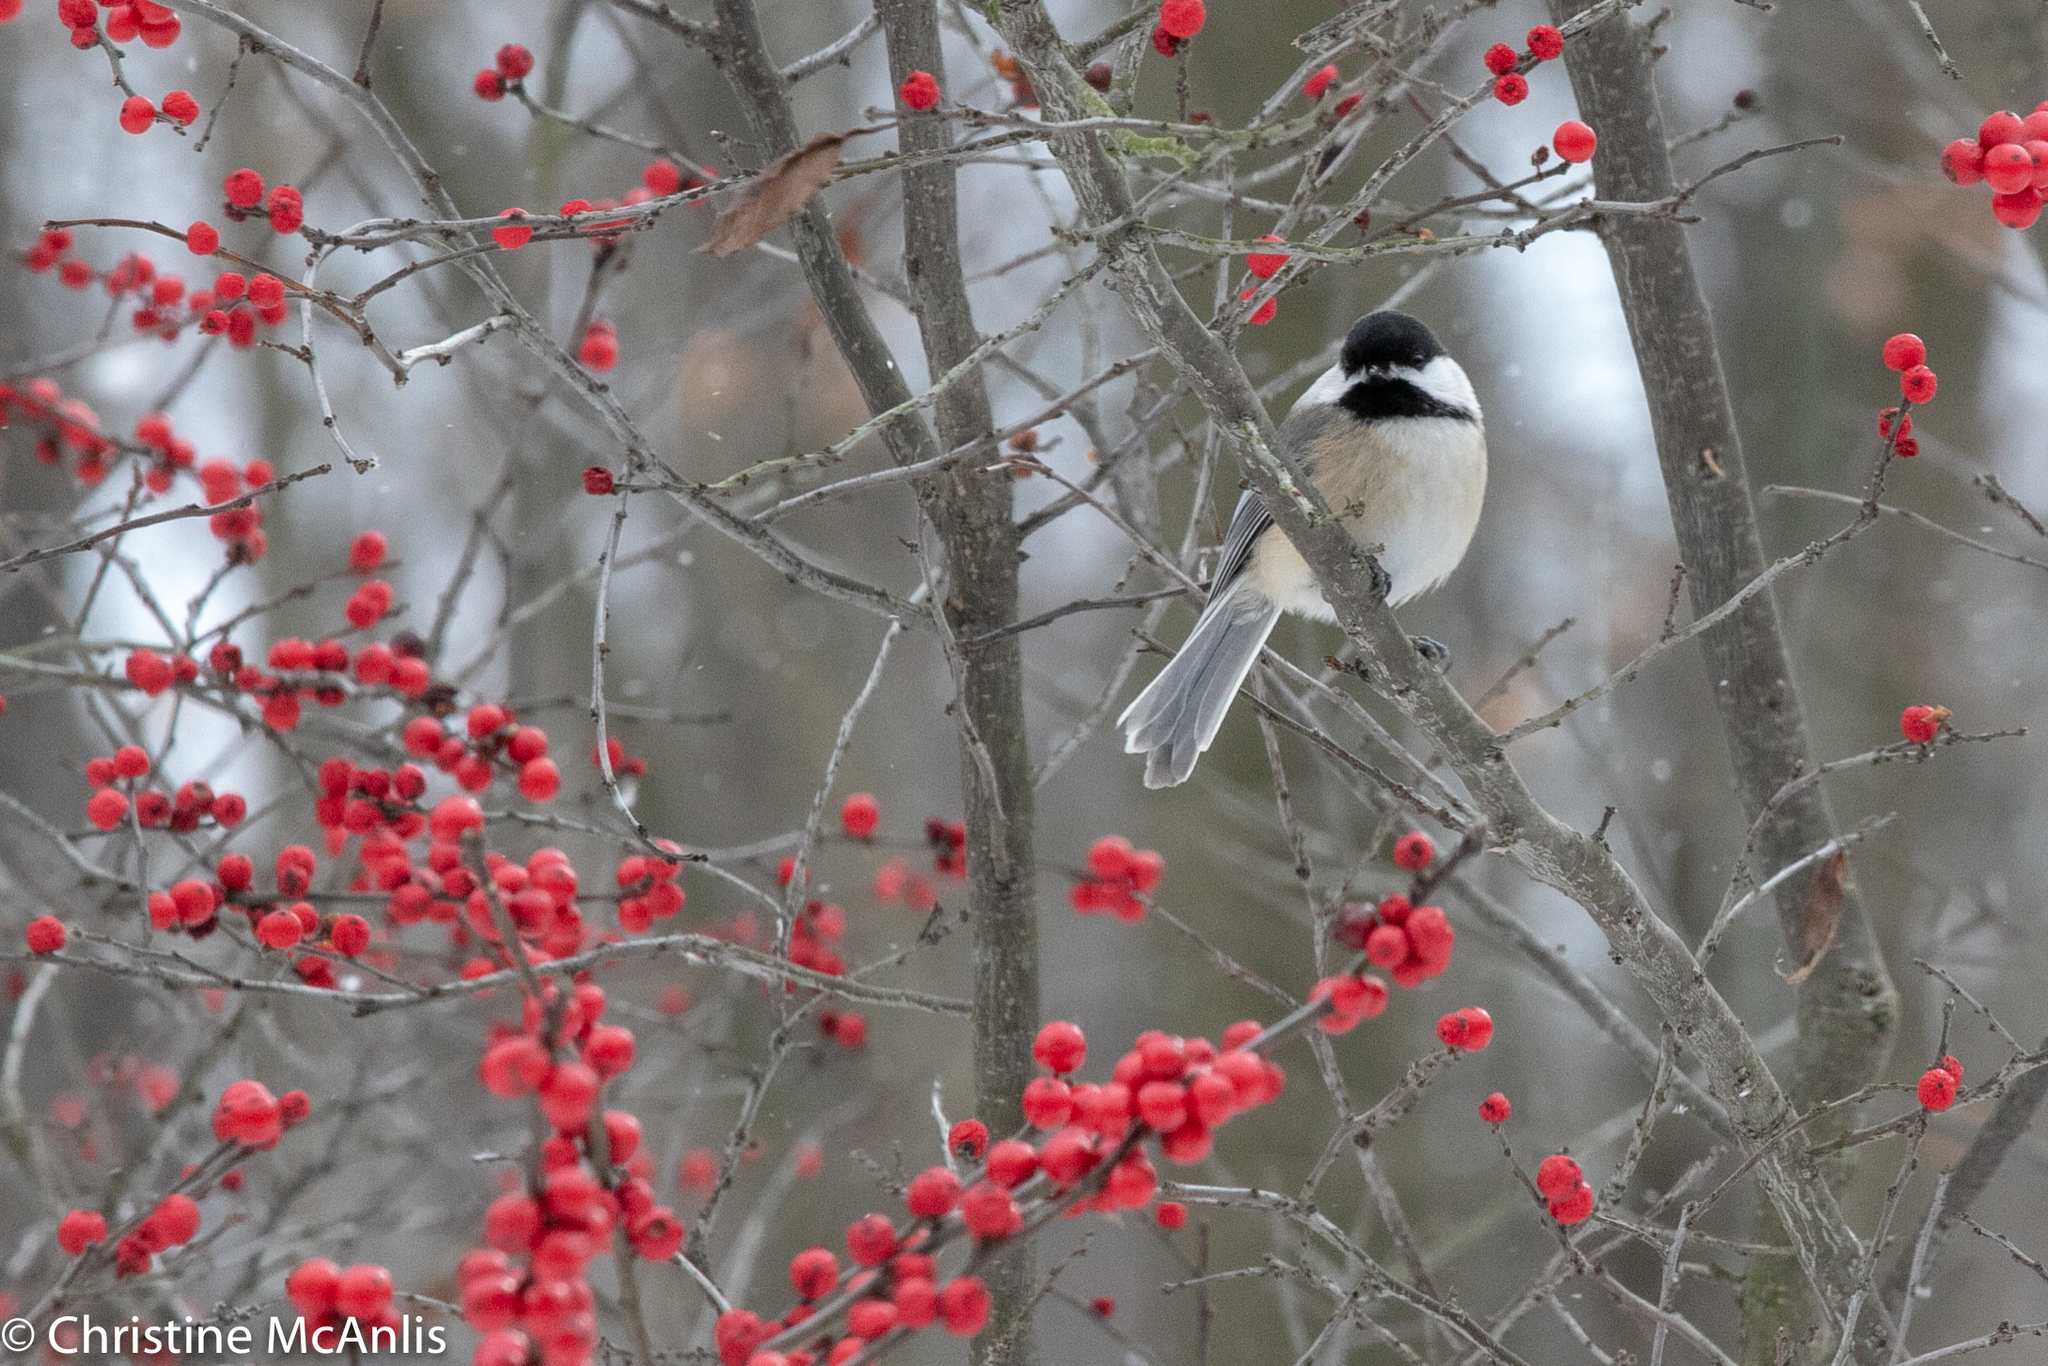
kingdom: Animalia
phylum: Chordata
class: Aves
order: Passeriformes
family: Paridae
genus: Poecile
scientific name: Poecile atricapillus
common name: Black-capped chickadee
